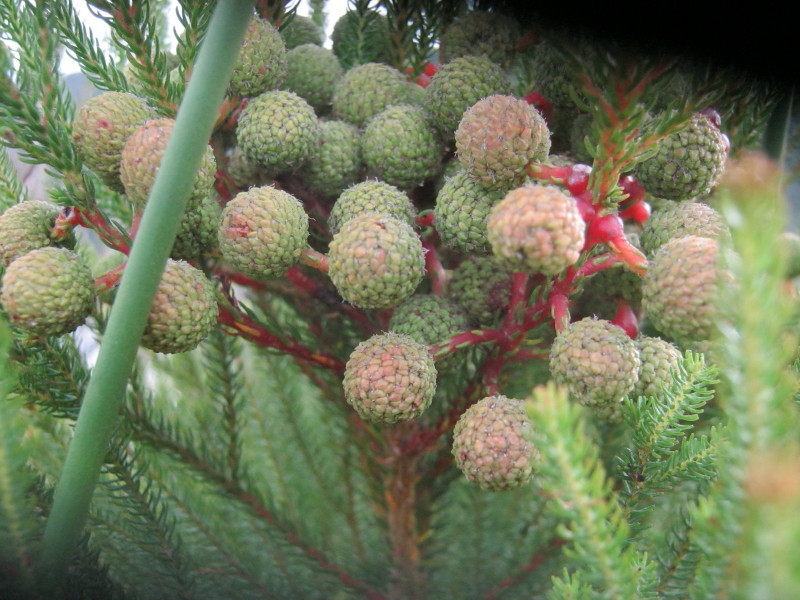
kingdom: Plantae
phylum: Tracheophyta
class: Magnoliopsida
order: Bruniales
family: Bruniaceae
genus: Berzelia
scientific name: Berzelia intermedia
